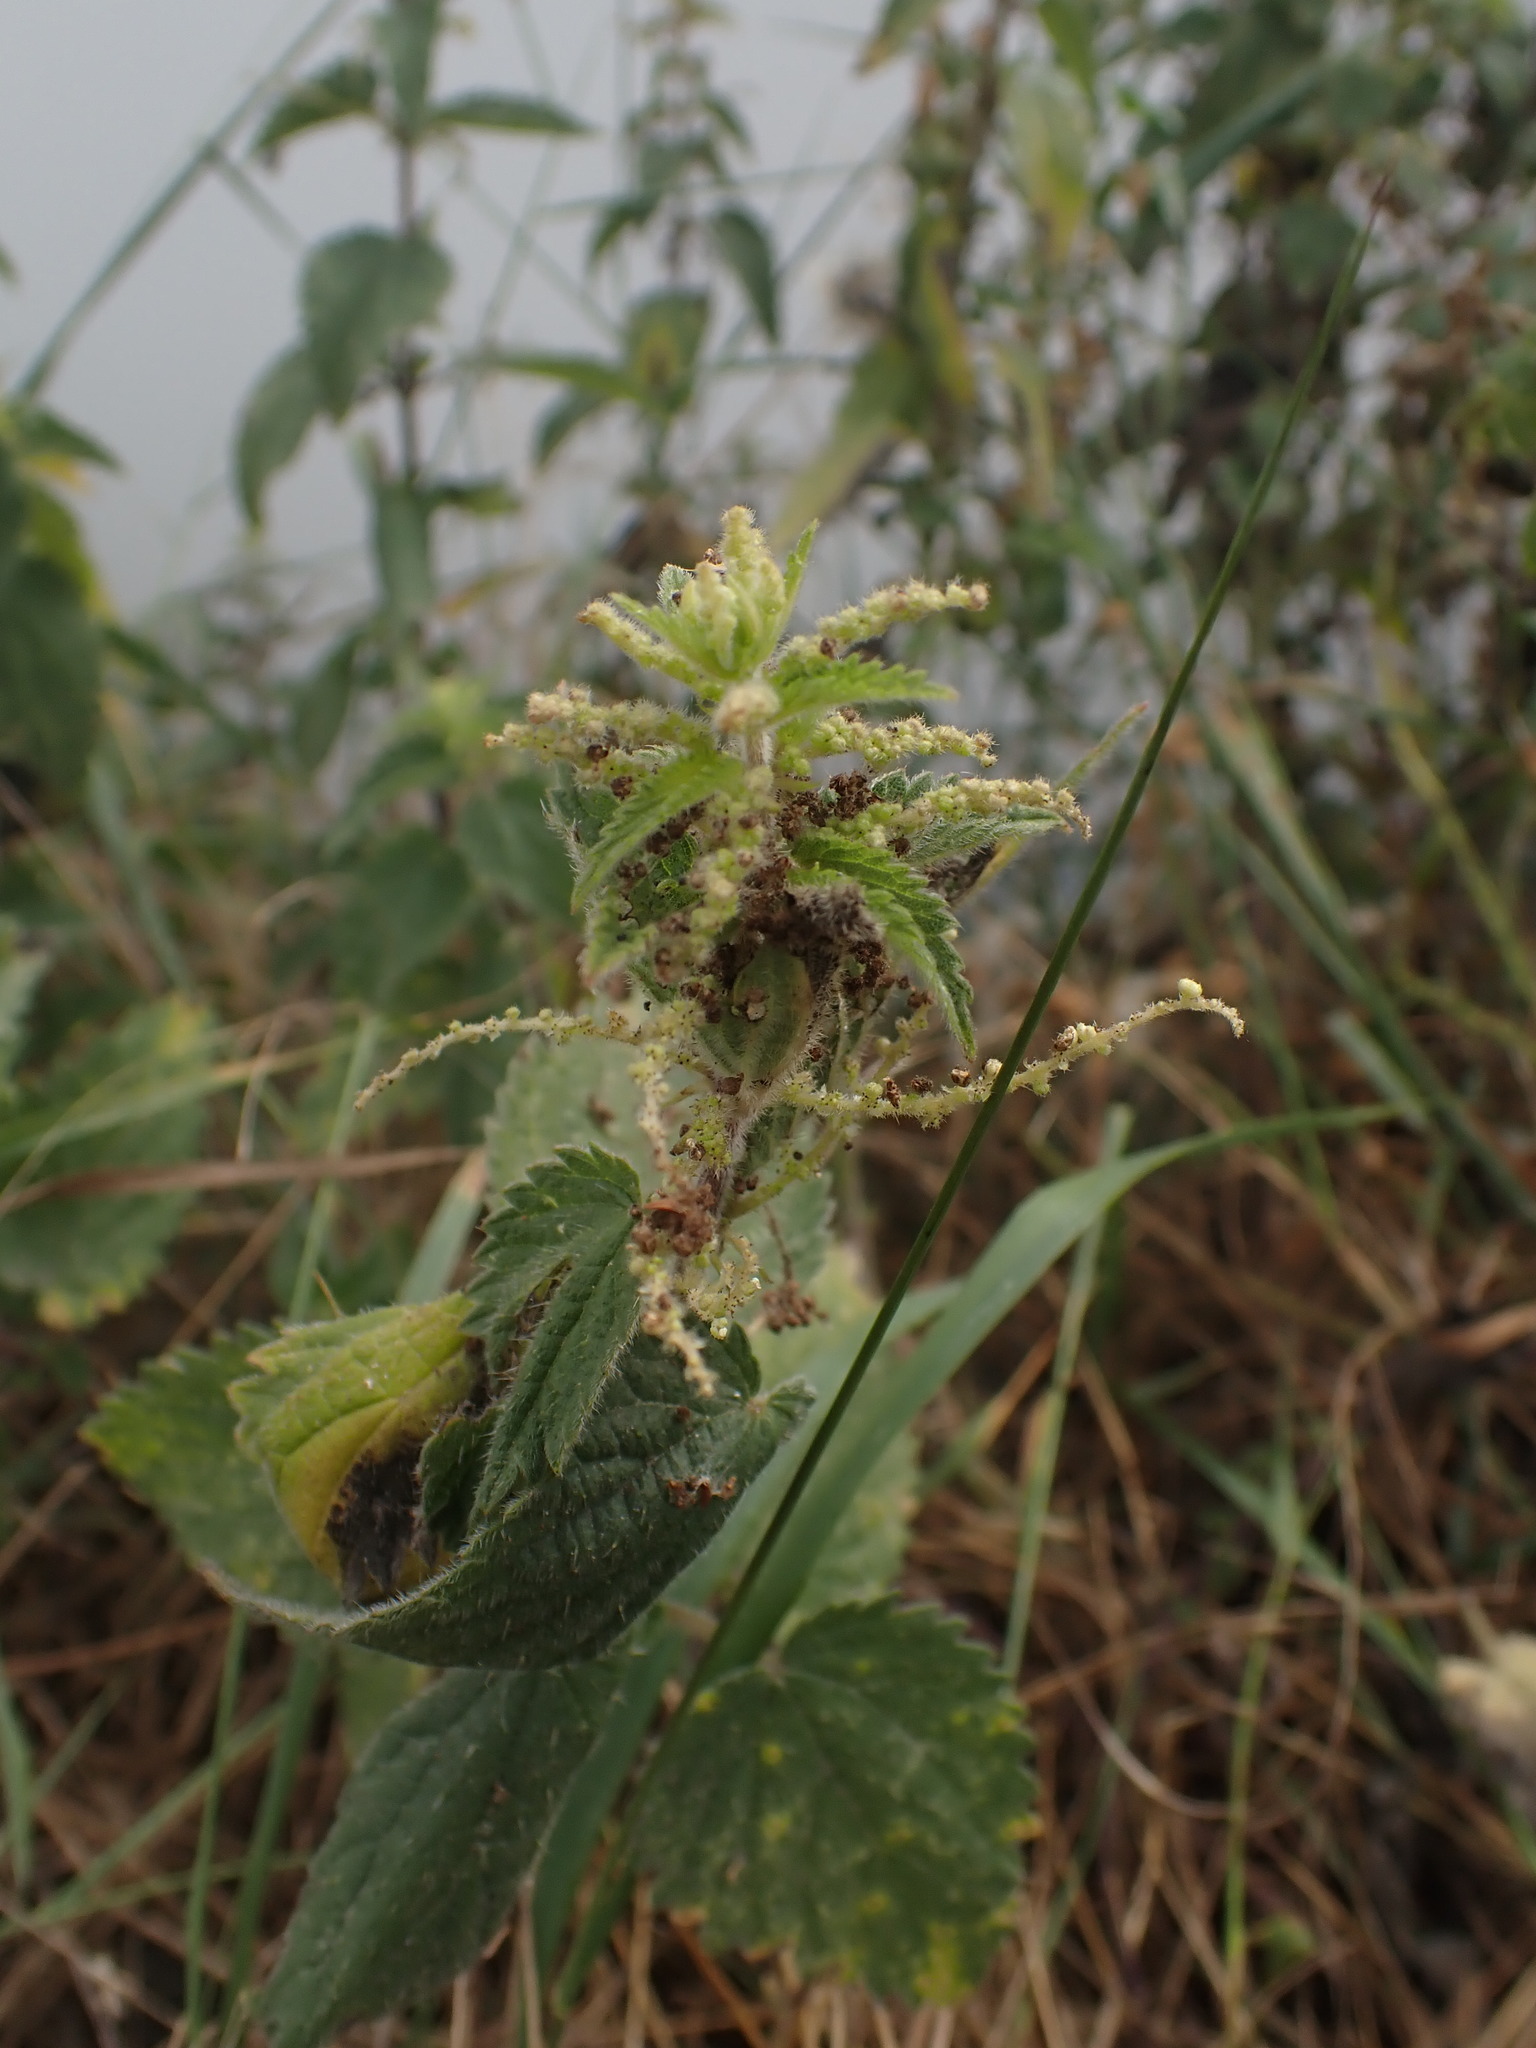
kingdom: Plantae
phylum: Tracheophyta
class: Magnoliopsida
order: Rosales
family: Urticaceae
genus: Urtica
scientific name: Urtica dioica
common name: Common nettle
